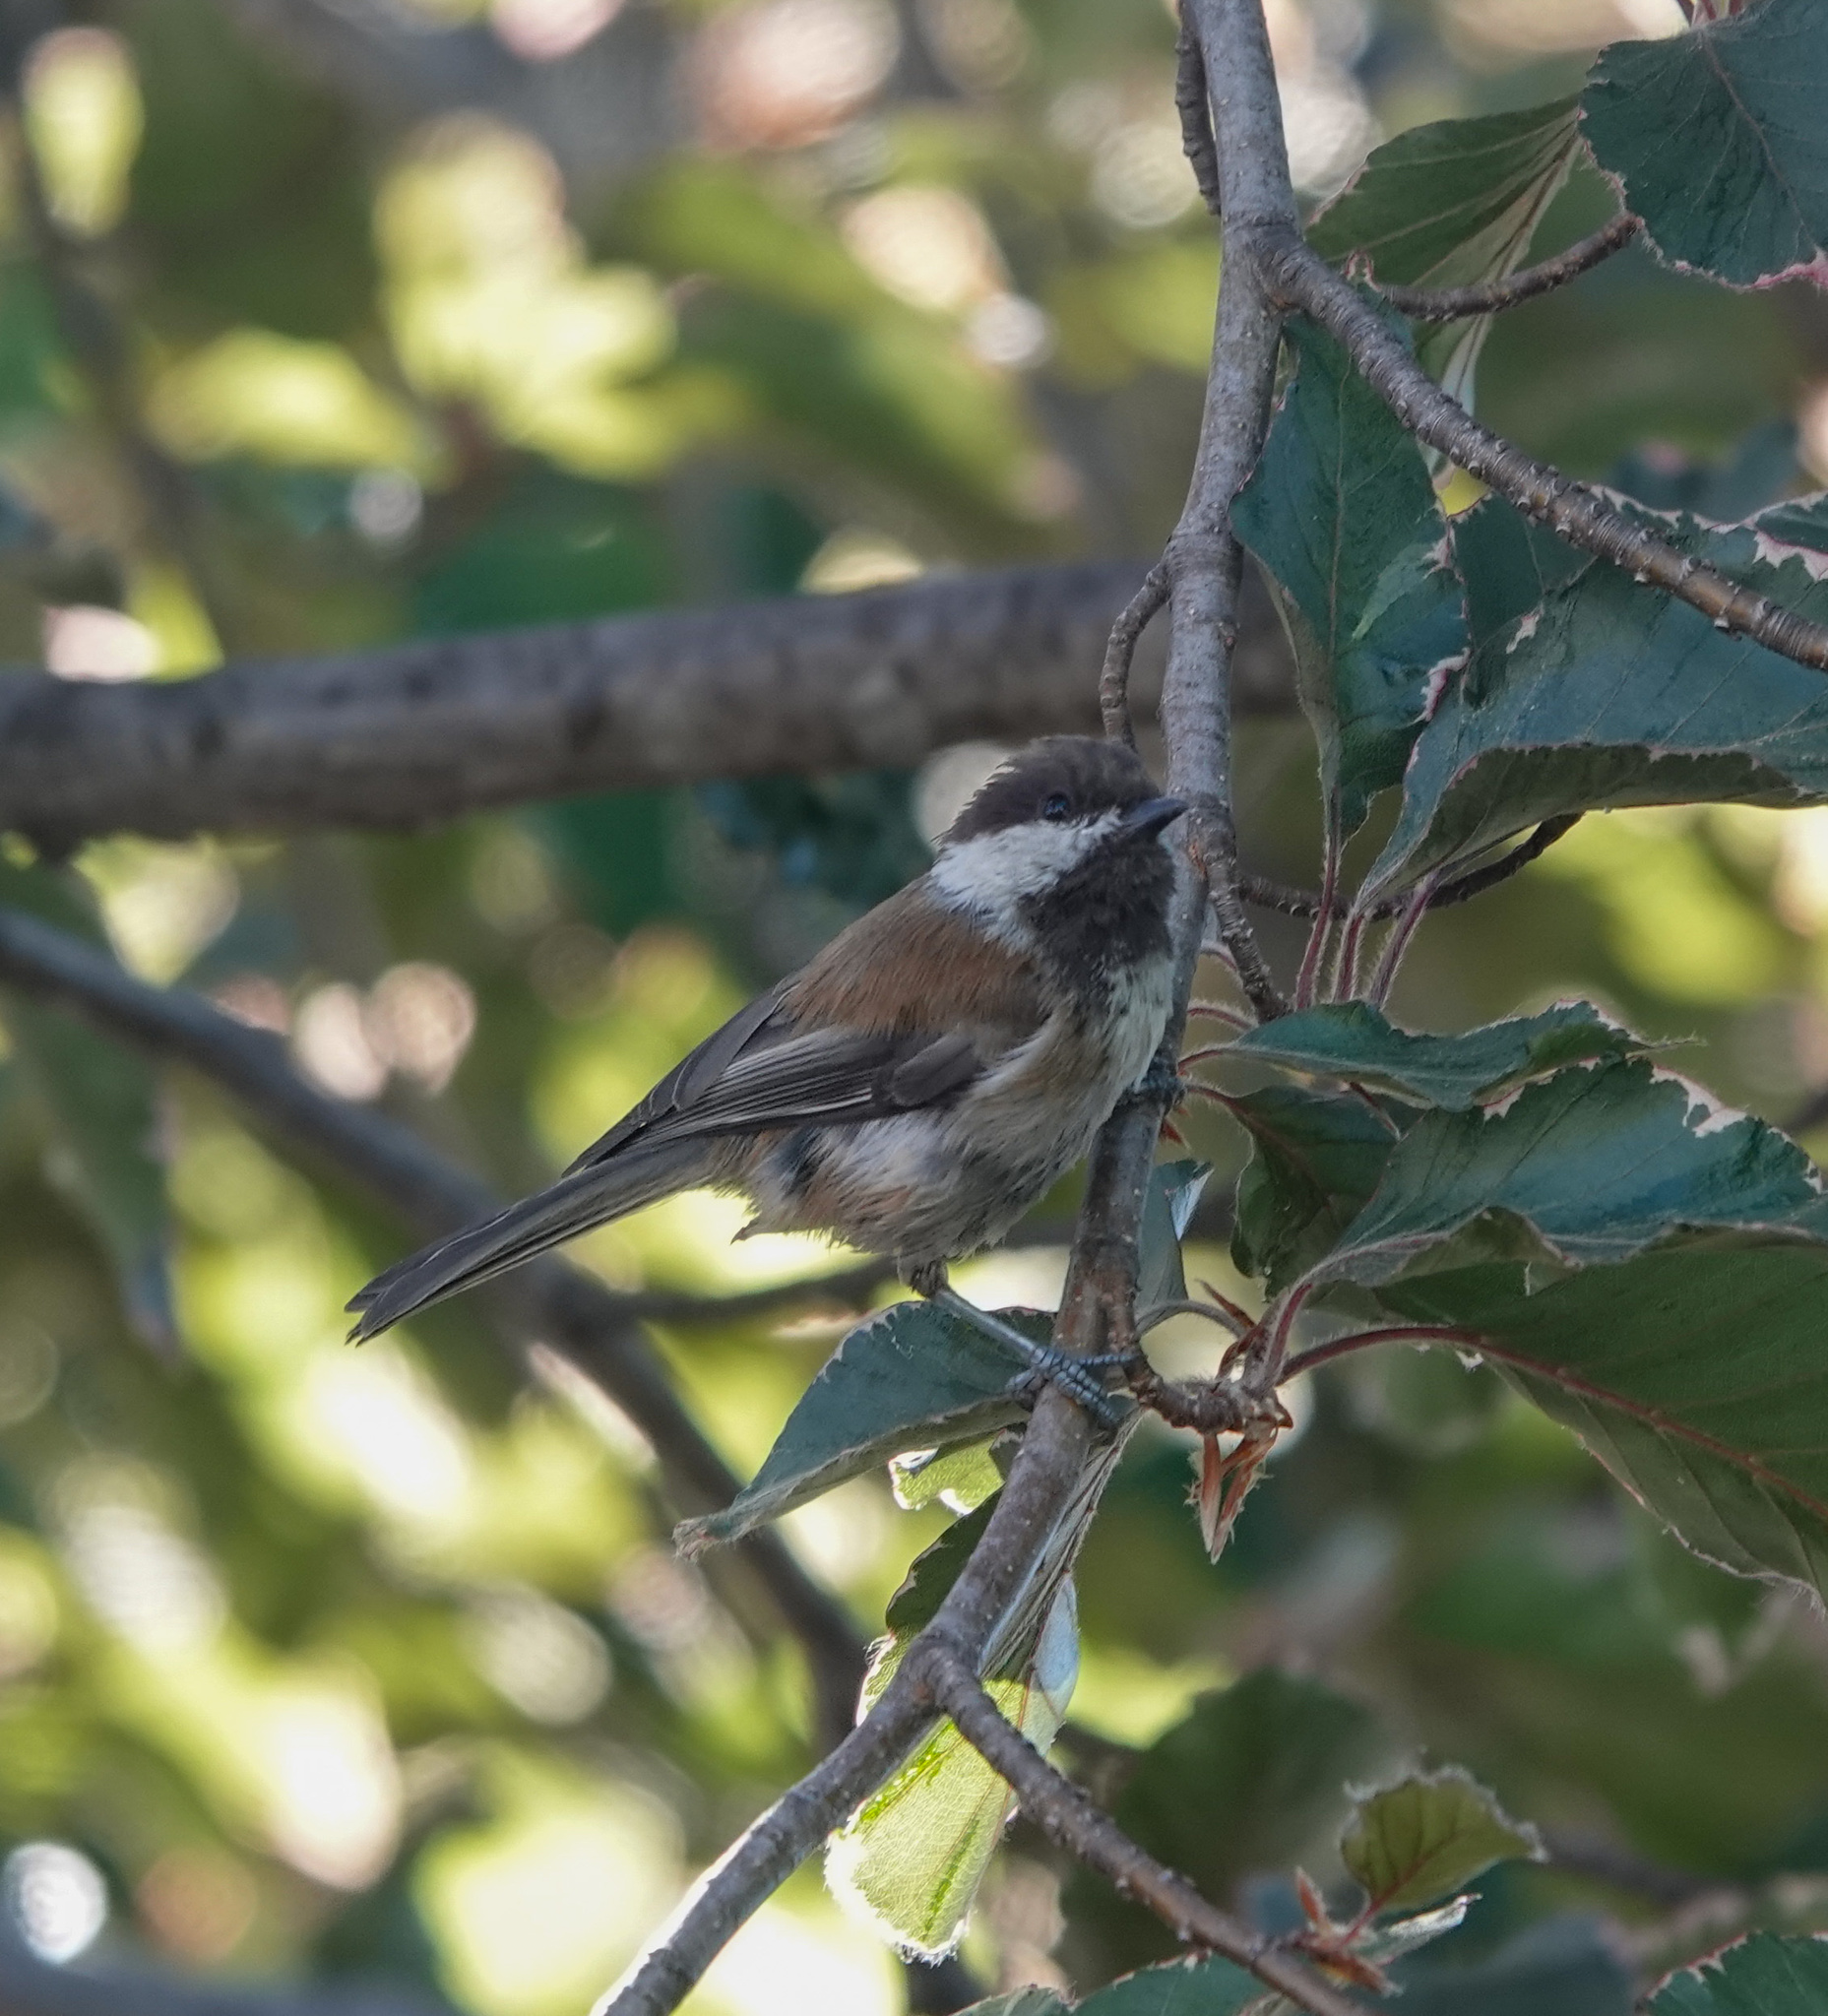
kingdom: Animalia
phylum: Chordata
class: Aves
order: Passeriformes
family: Paridae
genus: Poecile
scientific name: Poecile rufescens
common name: Chestnut-backed chickadee
